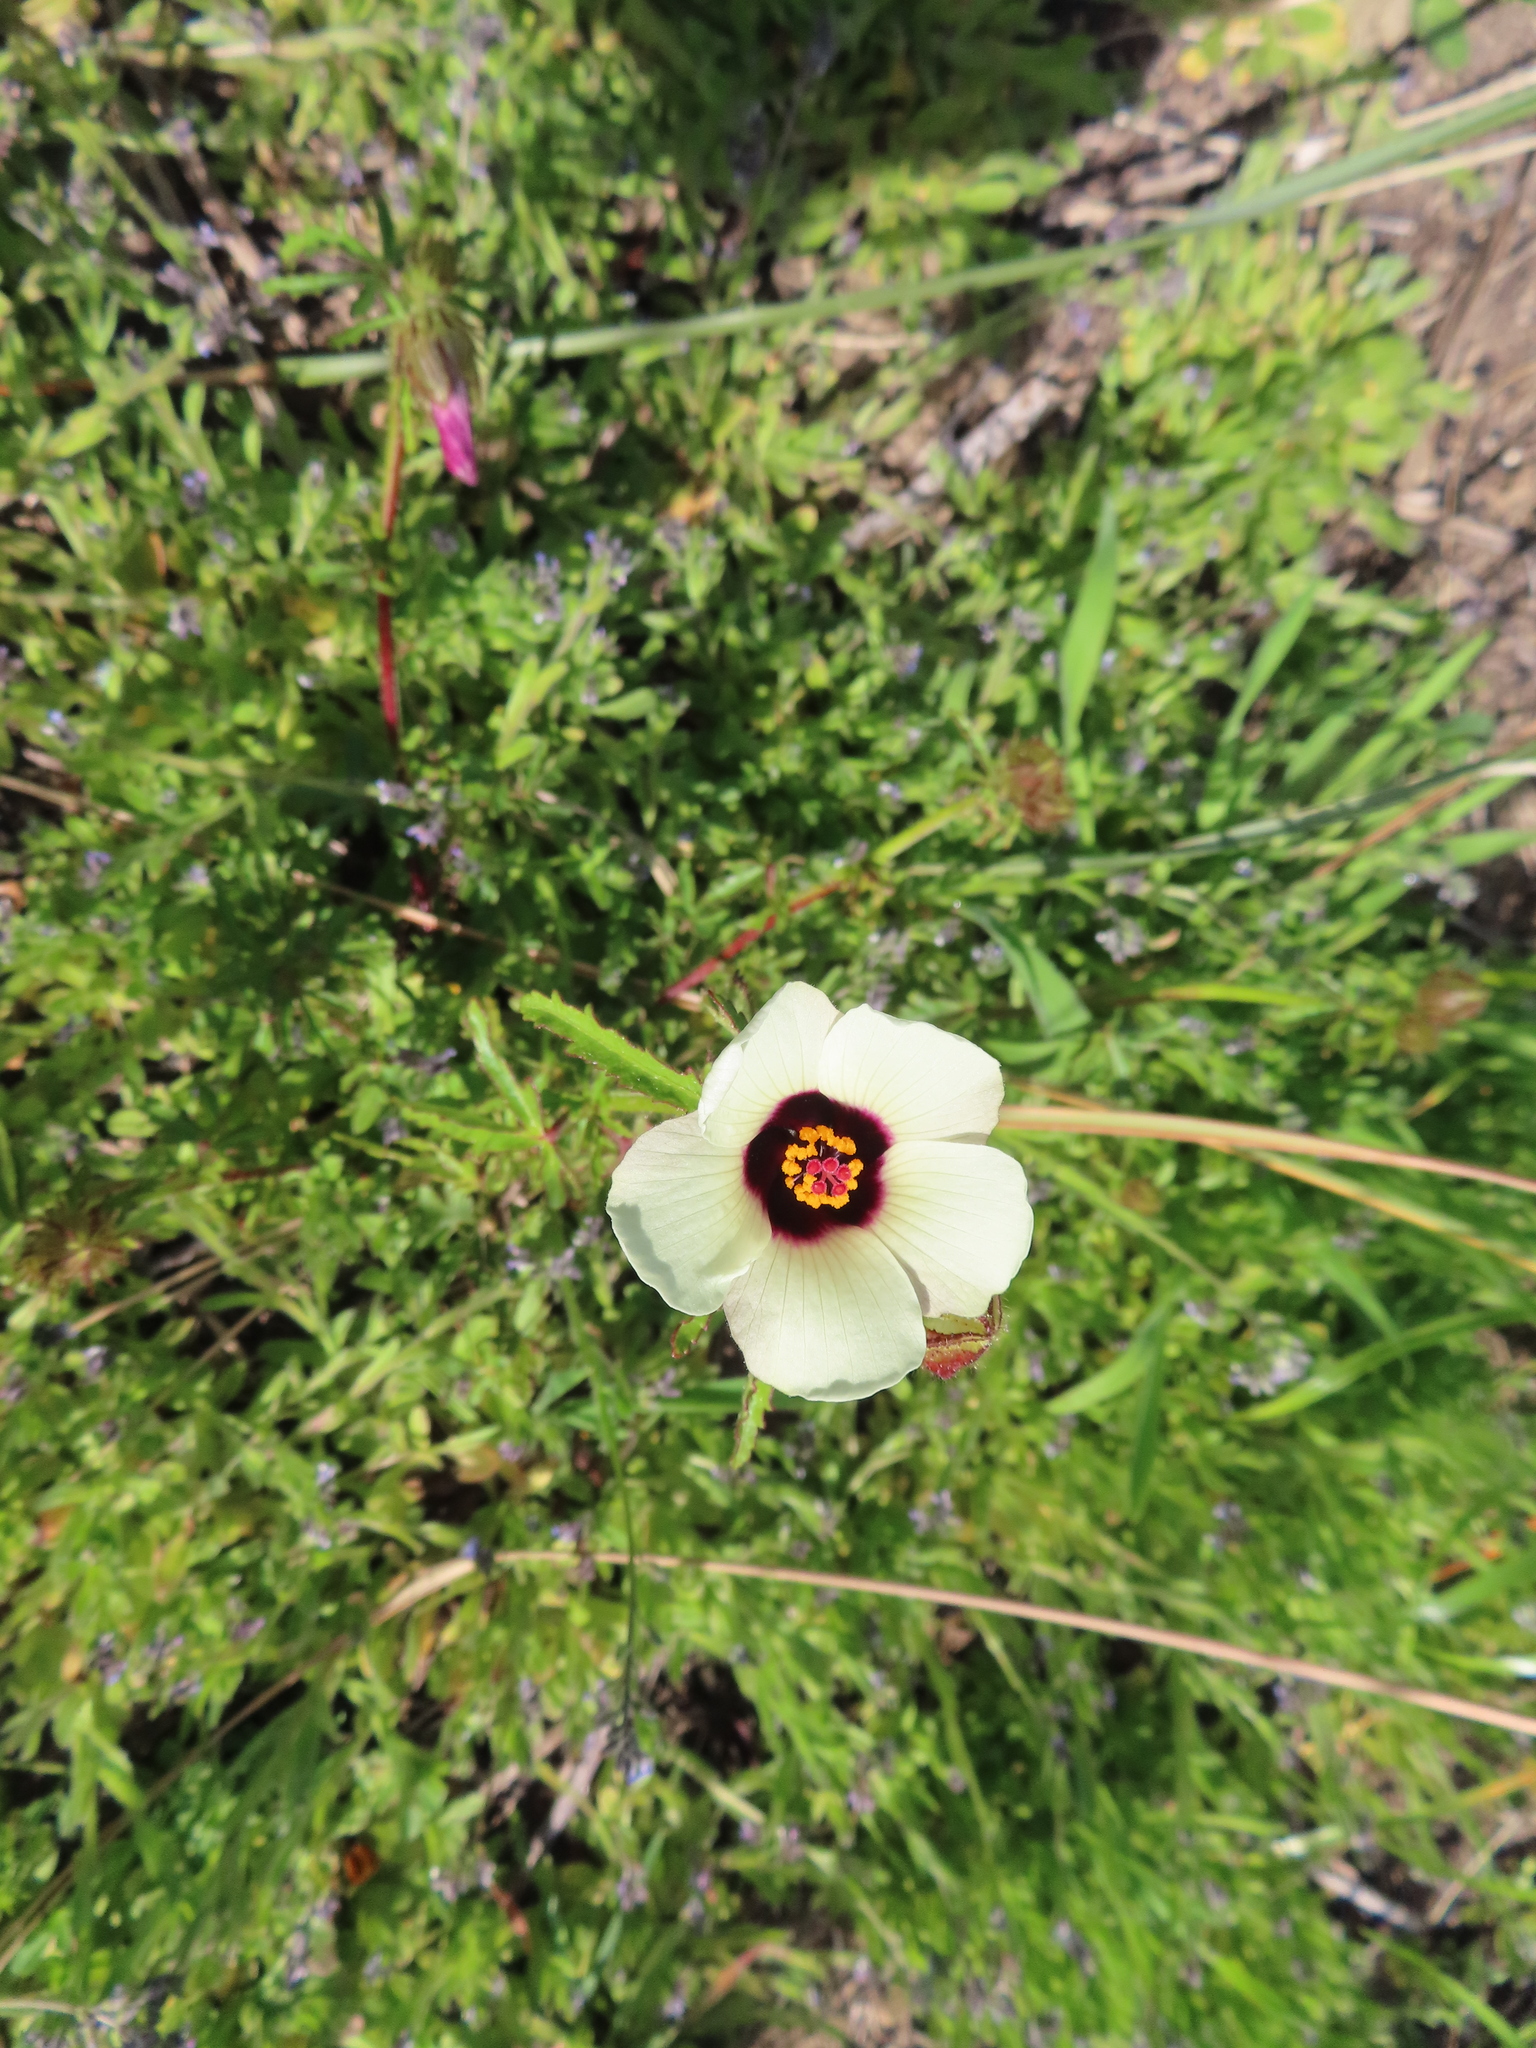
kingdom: Plantae
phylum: Tracheophyta
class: Magnoliopsida
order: Malvales
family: Malvaceae
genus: Hibiscus
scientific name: Hibiscus trionum
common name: Bladder ketmia
